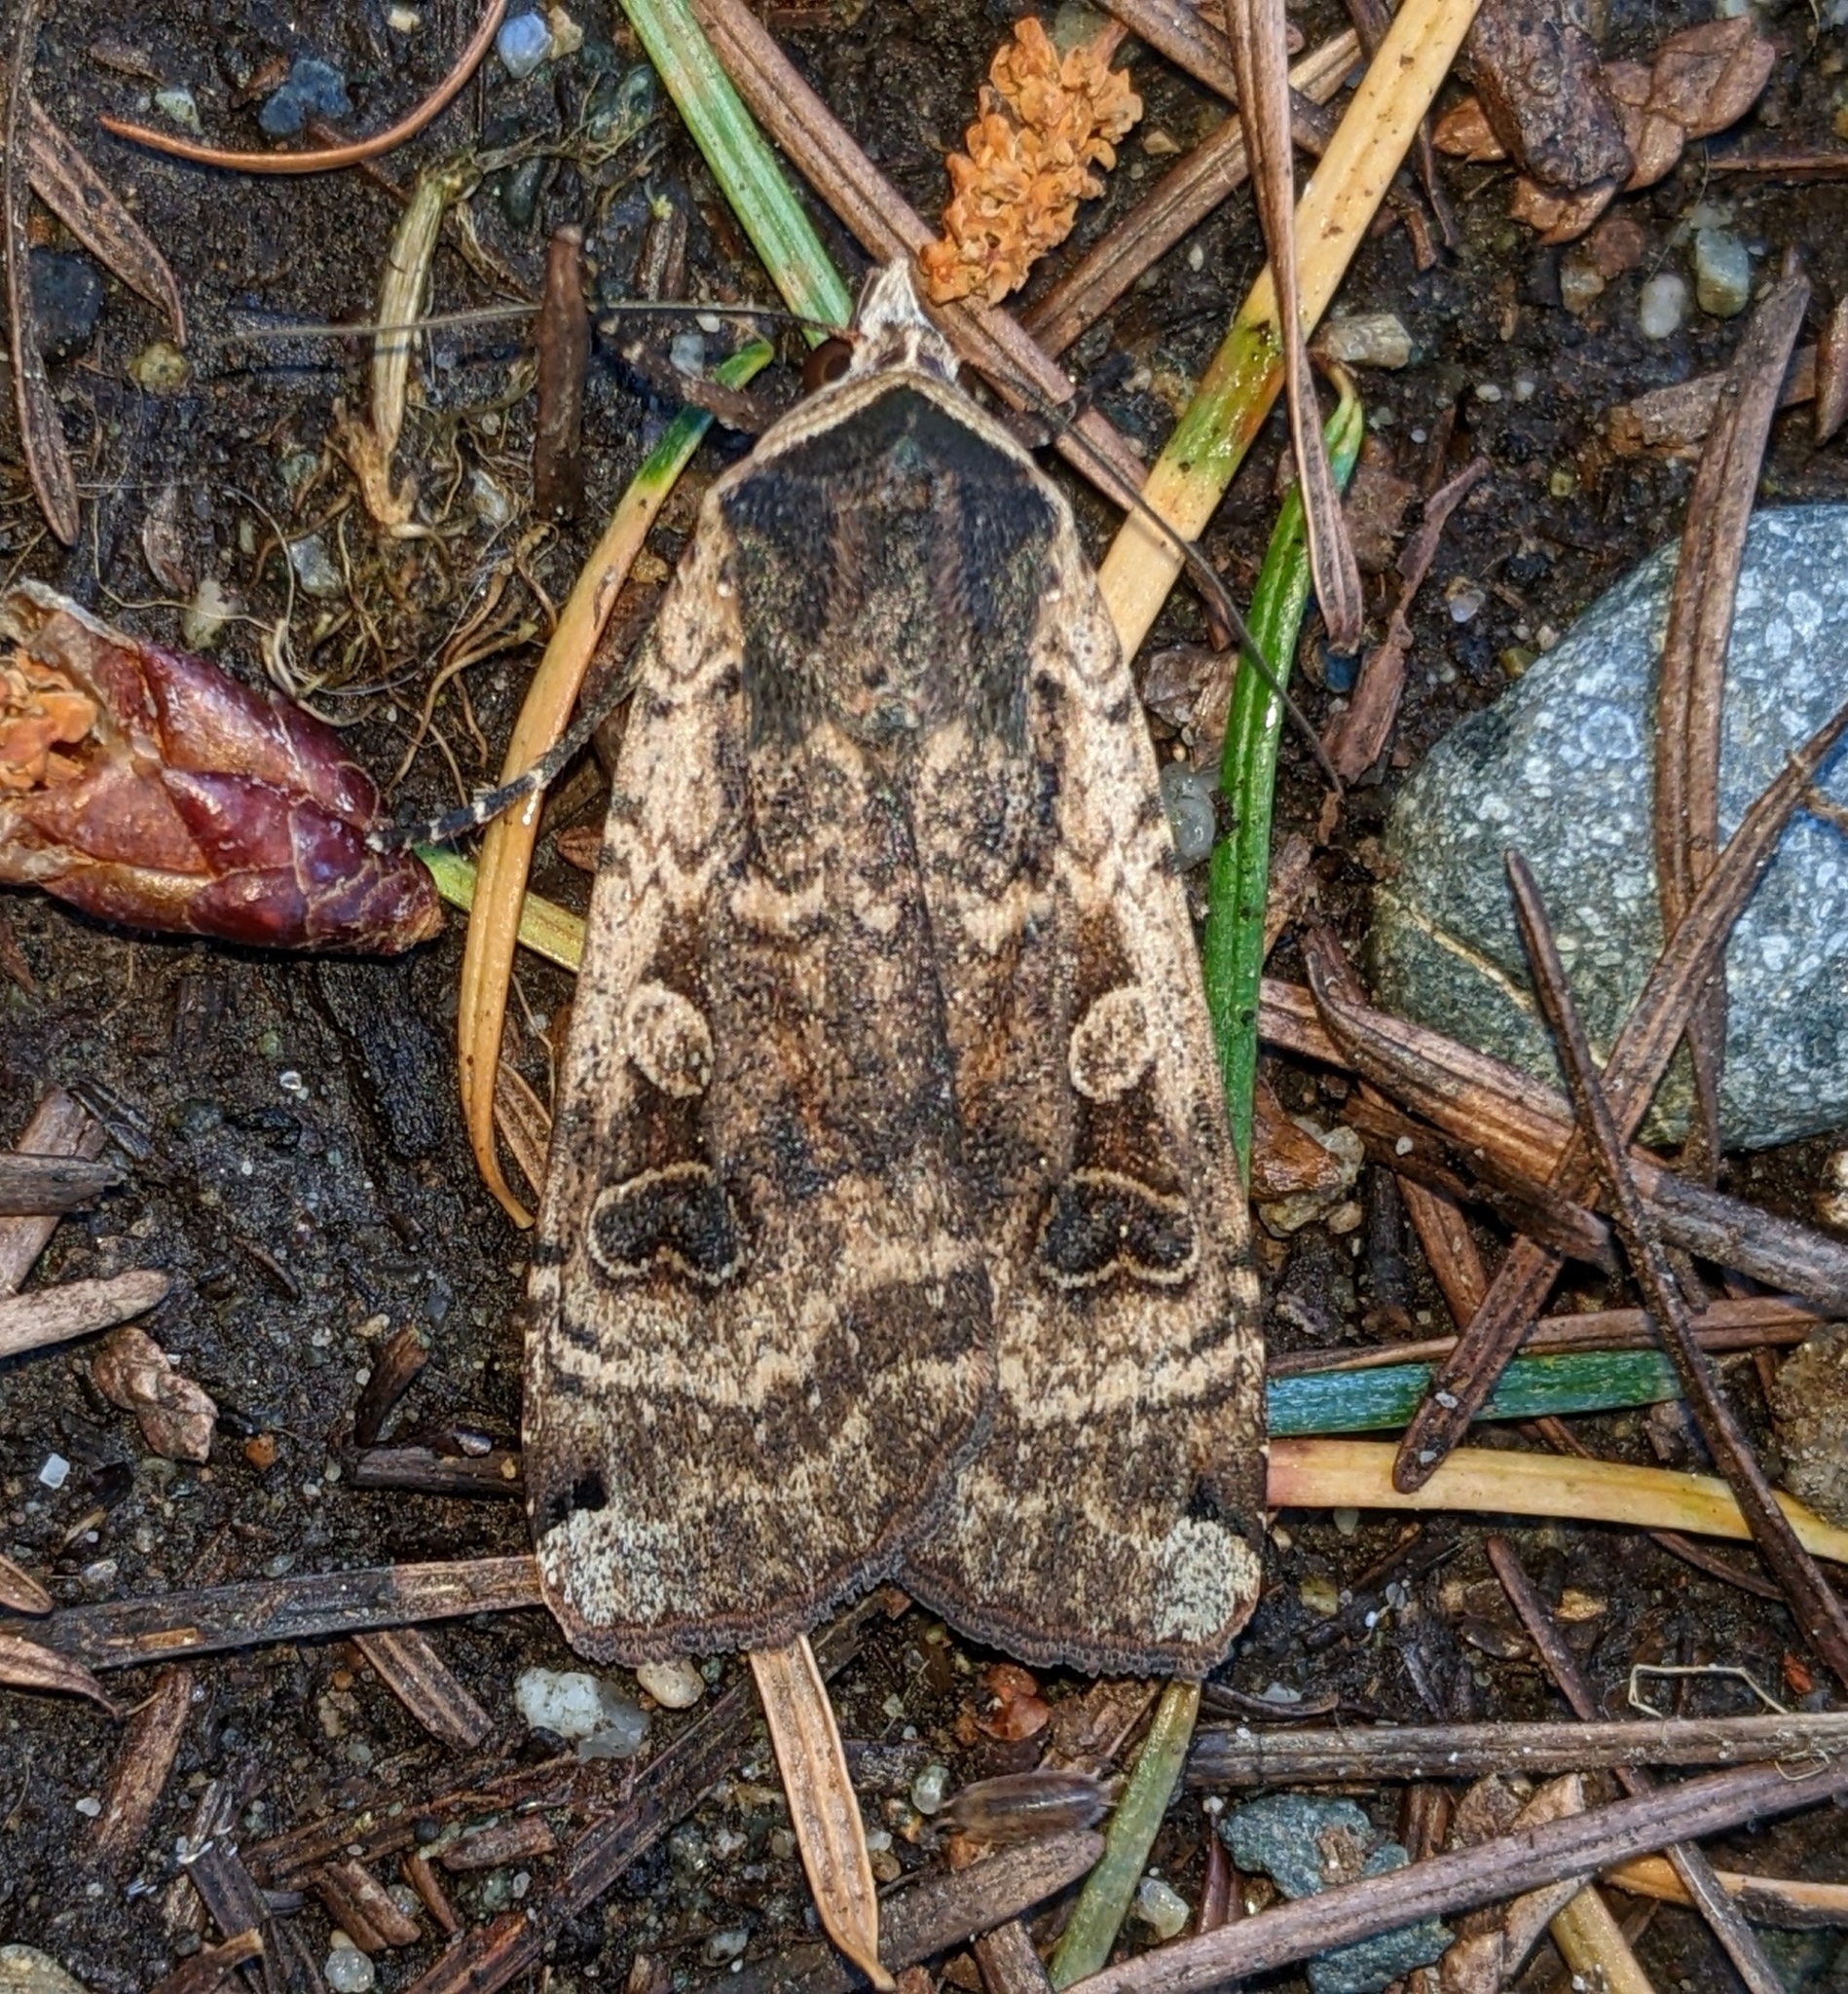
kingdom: Animalia
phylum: Arthropoda
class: Insecta
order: Lepidoptera
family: Noctuidae
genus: Noctua
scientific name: Noctua pronuba
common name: Large yellow underwing
